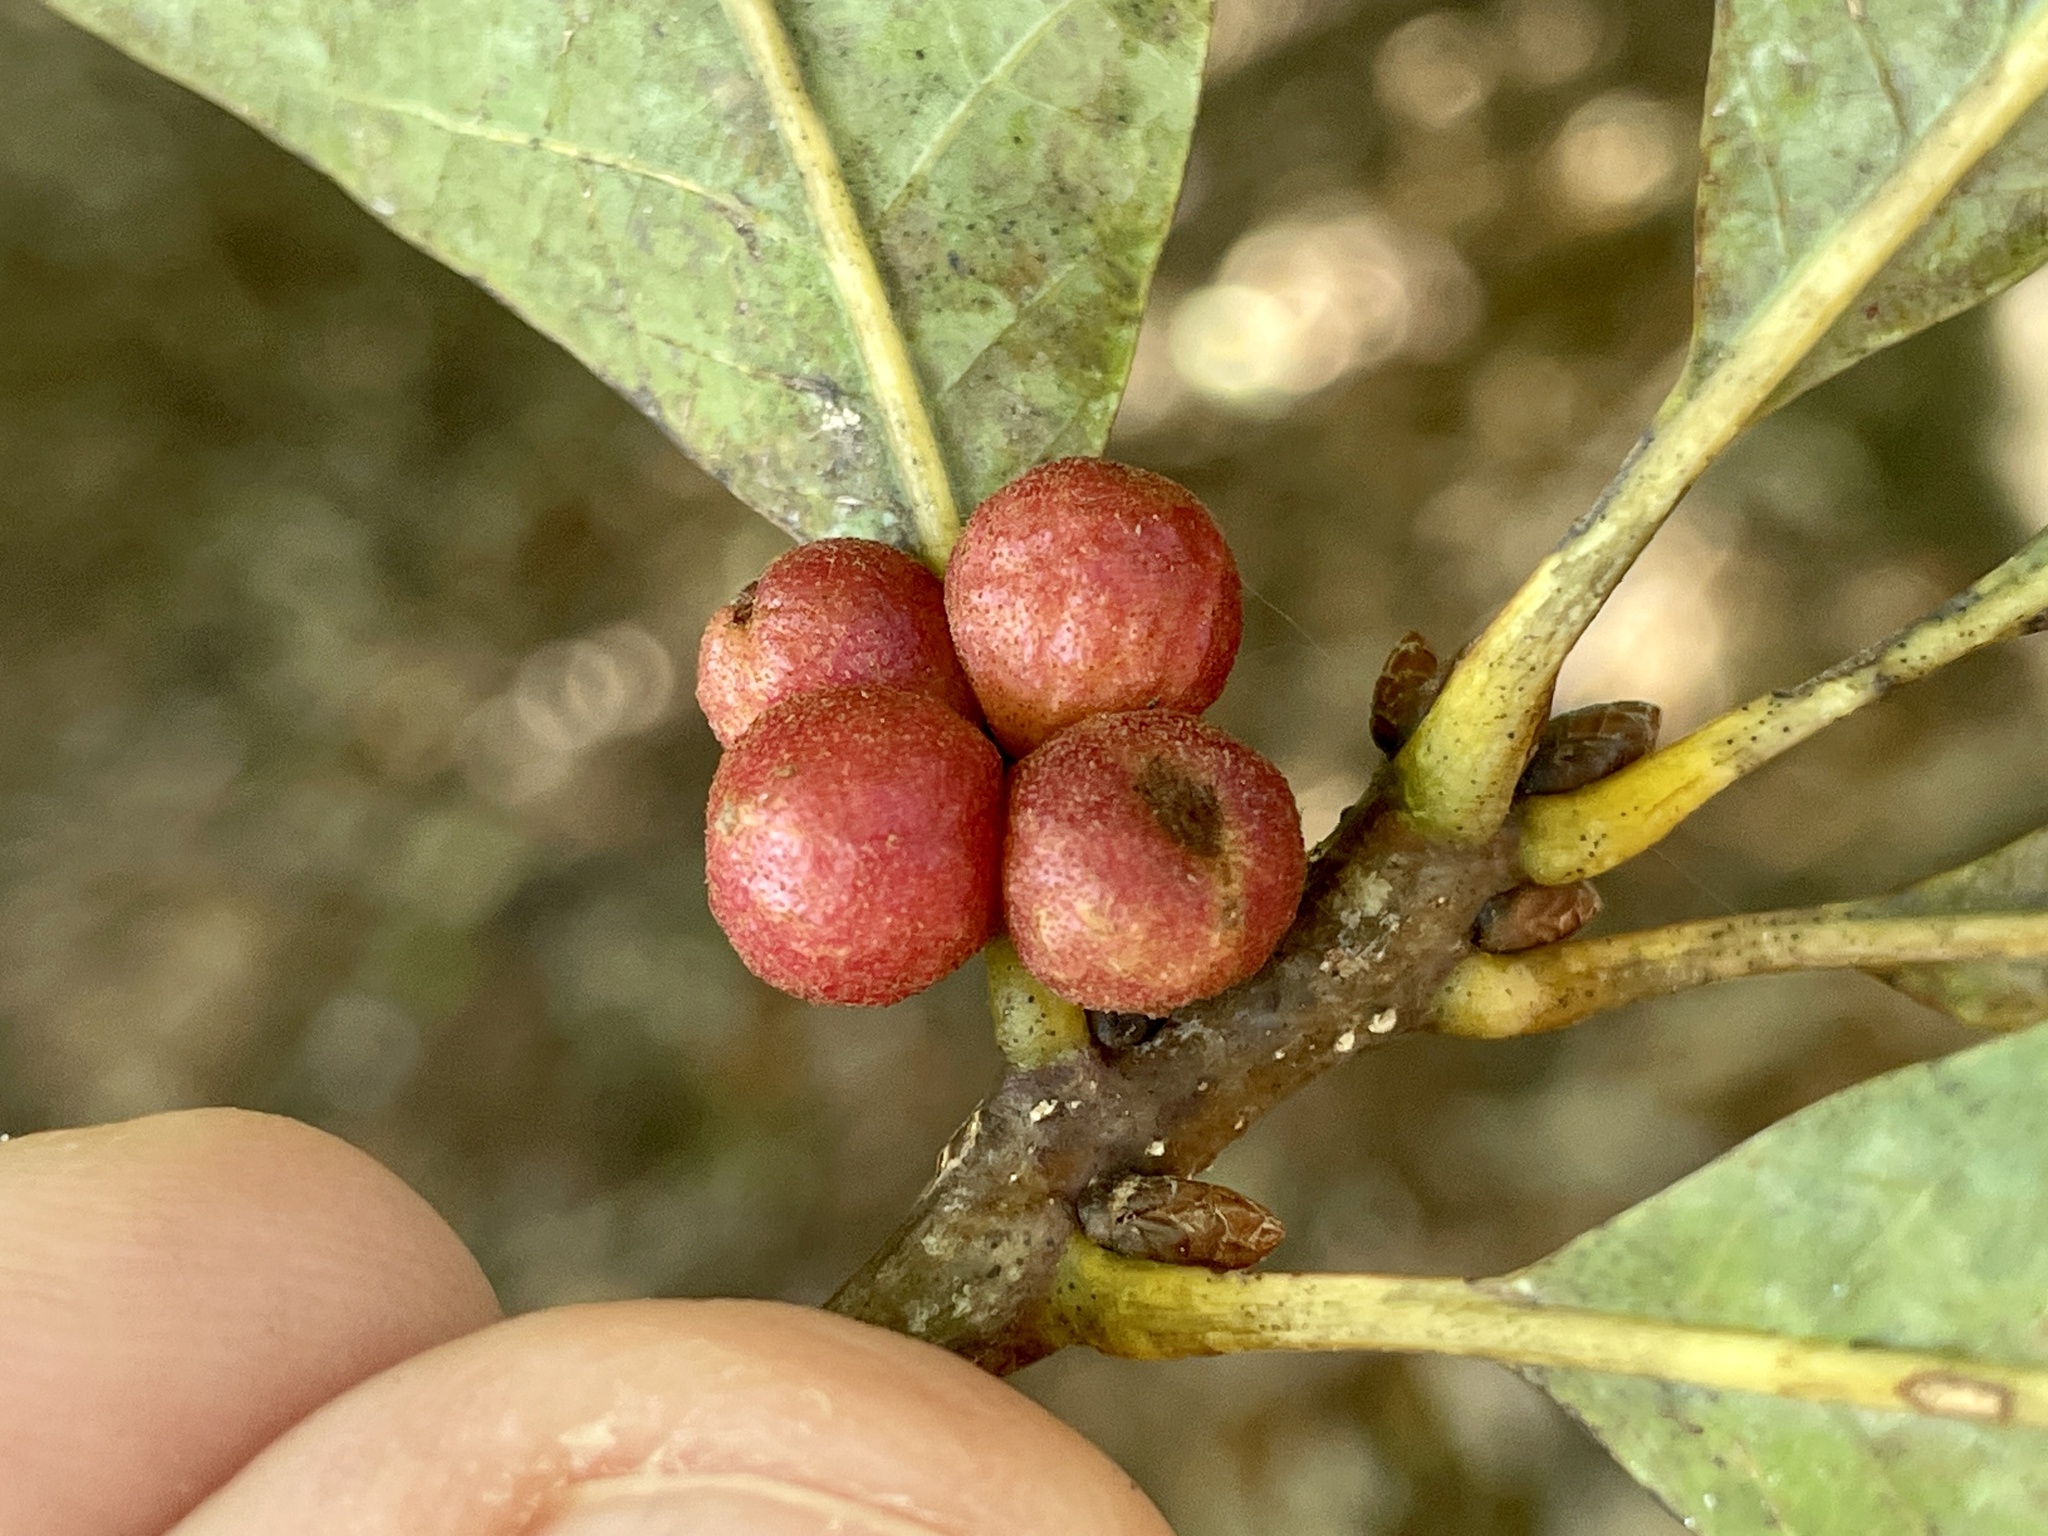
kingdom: Animalia
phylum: Arthropoda
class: Insecta
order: Hymenoptera
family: Cynipidae
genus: Andricus
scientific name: Andricus
